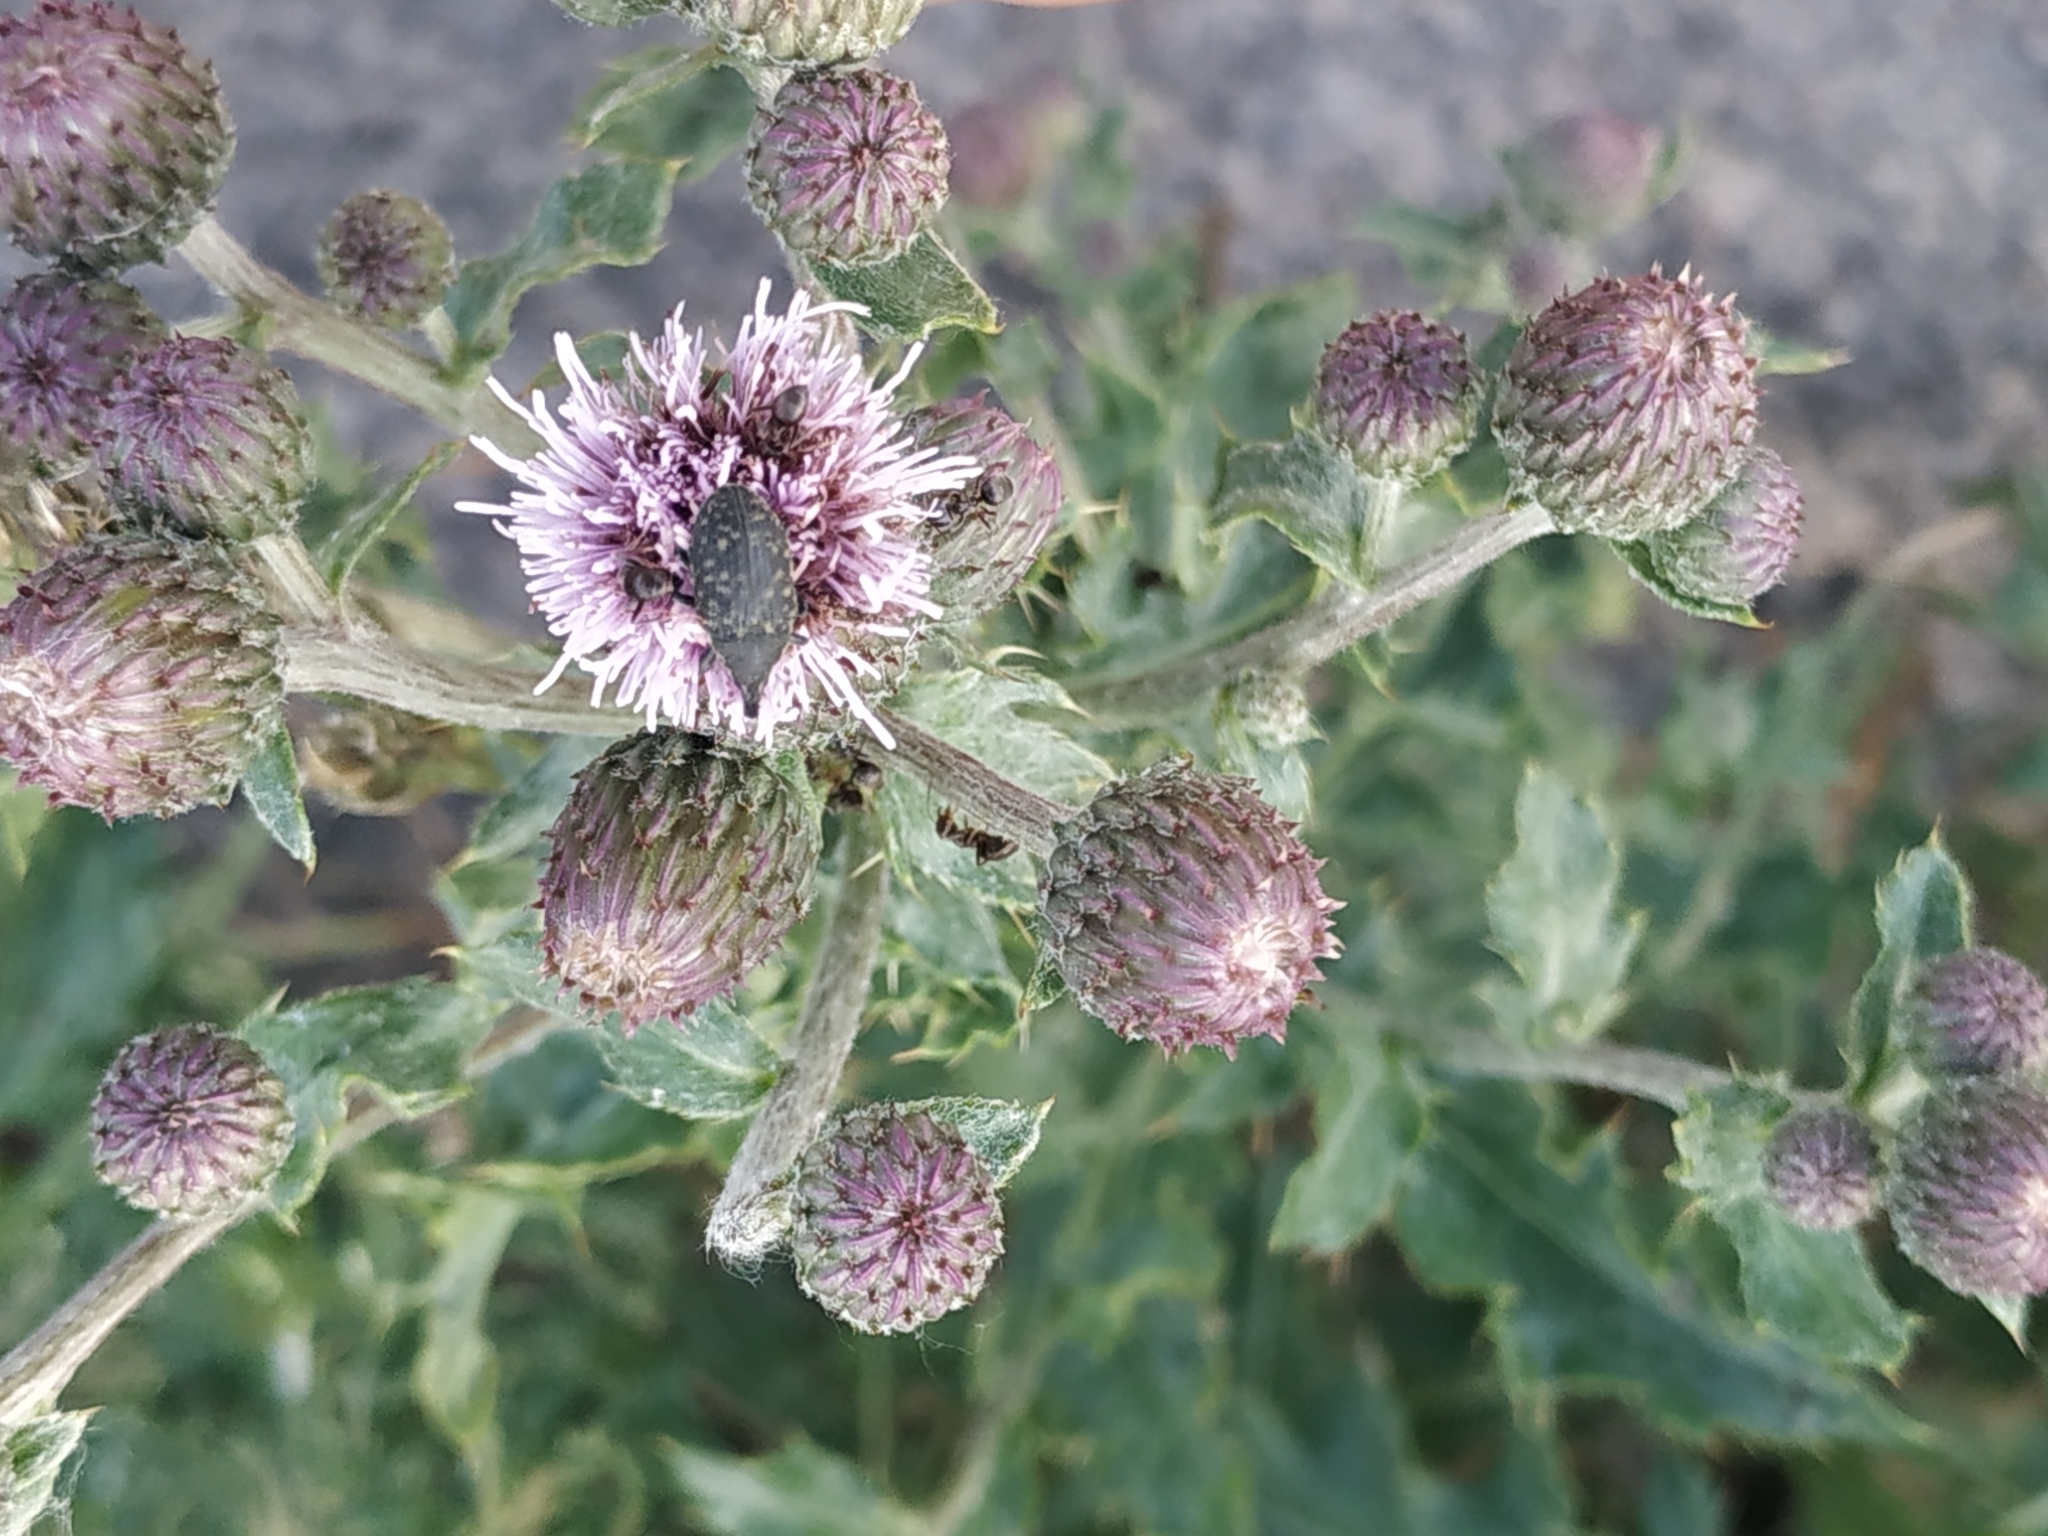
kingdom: Plantae
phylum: Tracheophyta
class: Magnoliopsida
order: Asterales
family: Asteraceae
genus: Cirsium
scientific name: Cirsium arvense
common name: Creeping thistle
